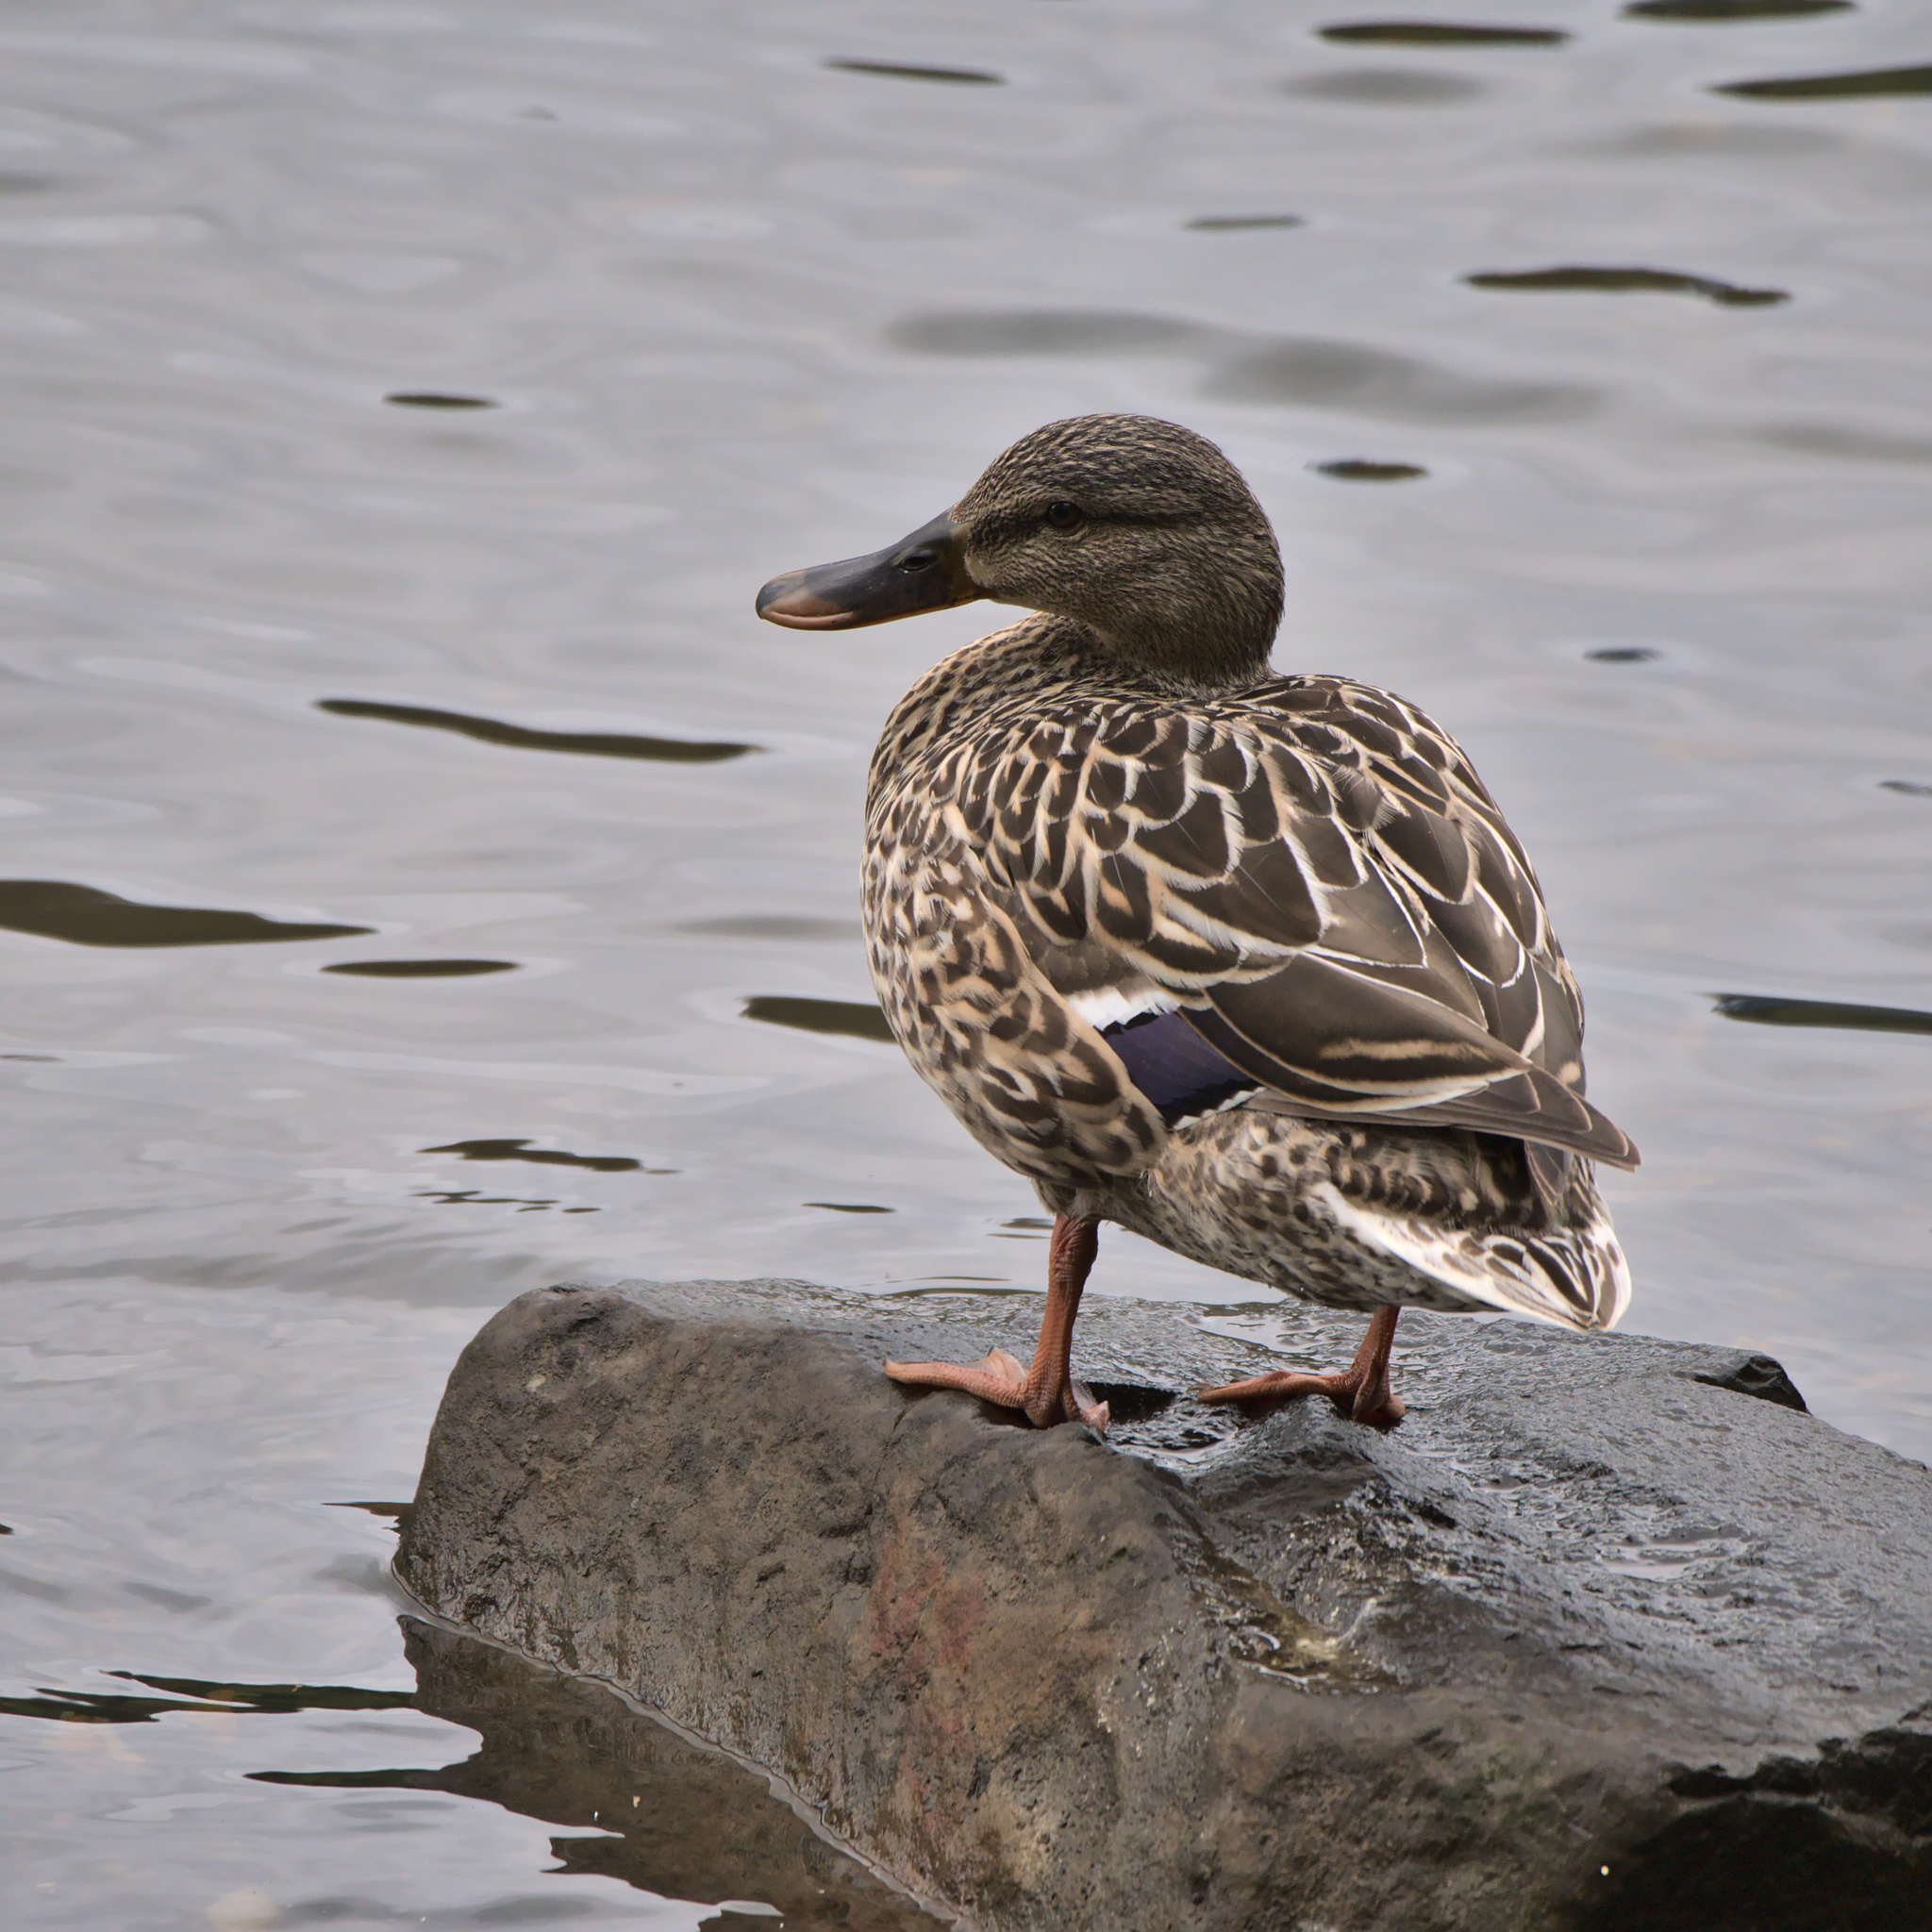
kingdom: Animalia
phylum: Chordata
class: Aves
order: Anseriformes
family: Anatidae
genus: Anas
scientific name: Anas platyrhynchos
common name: Mallard
